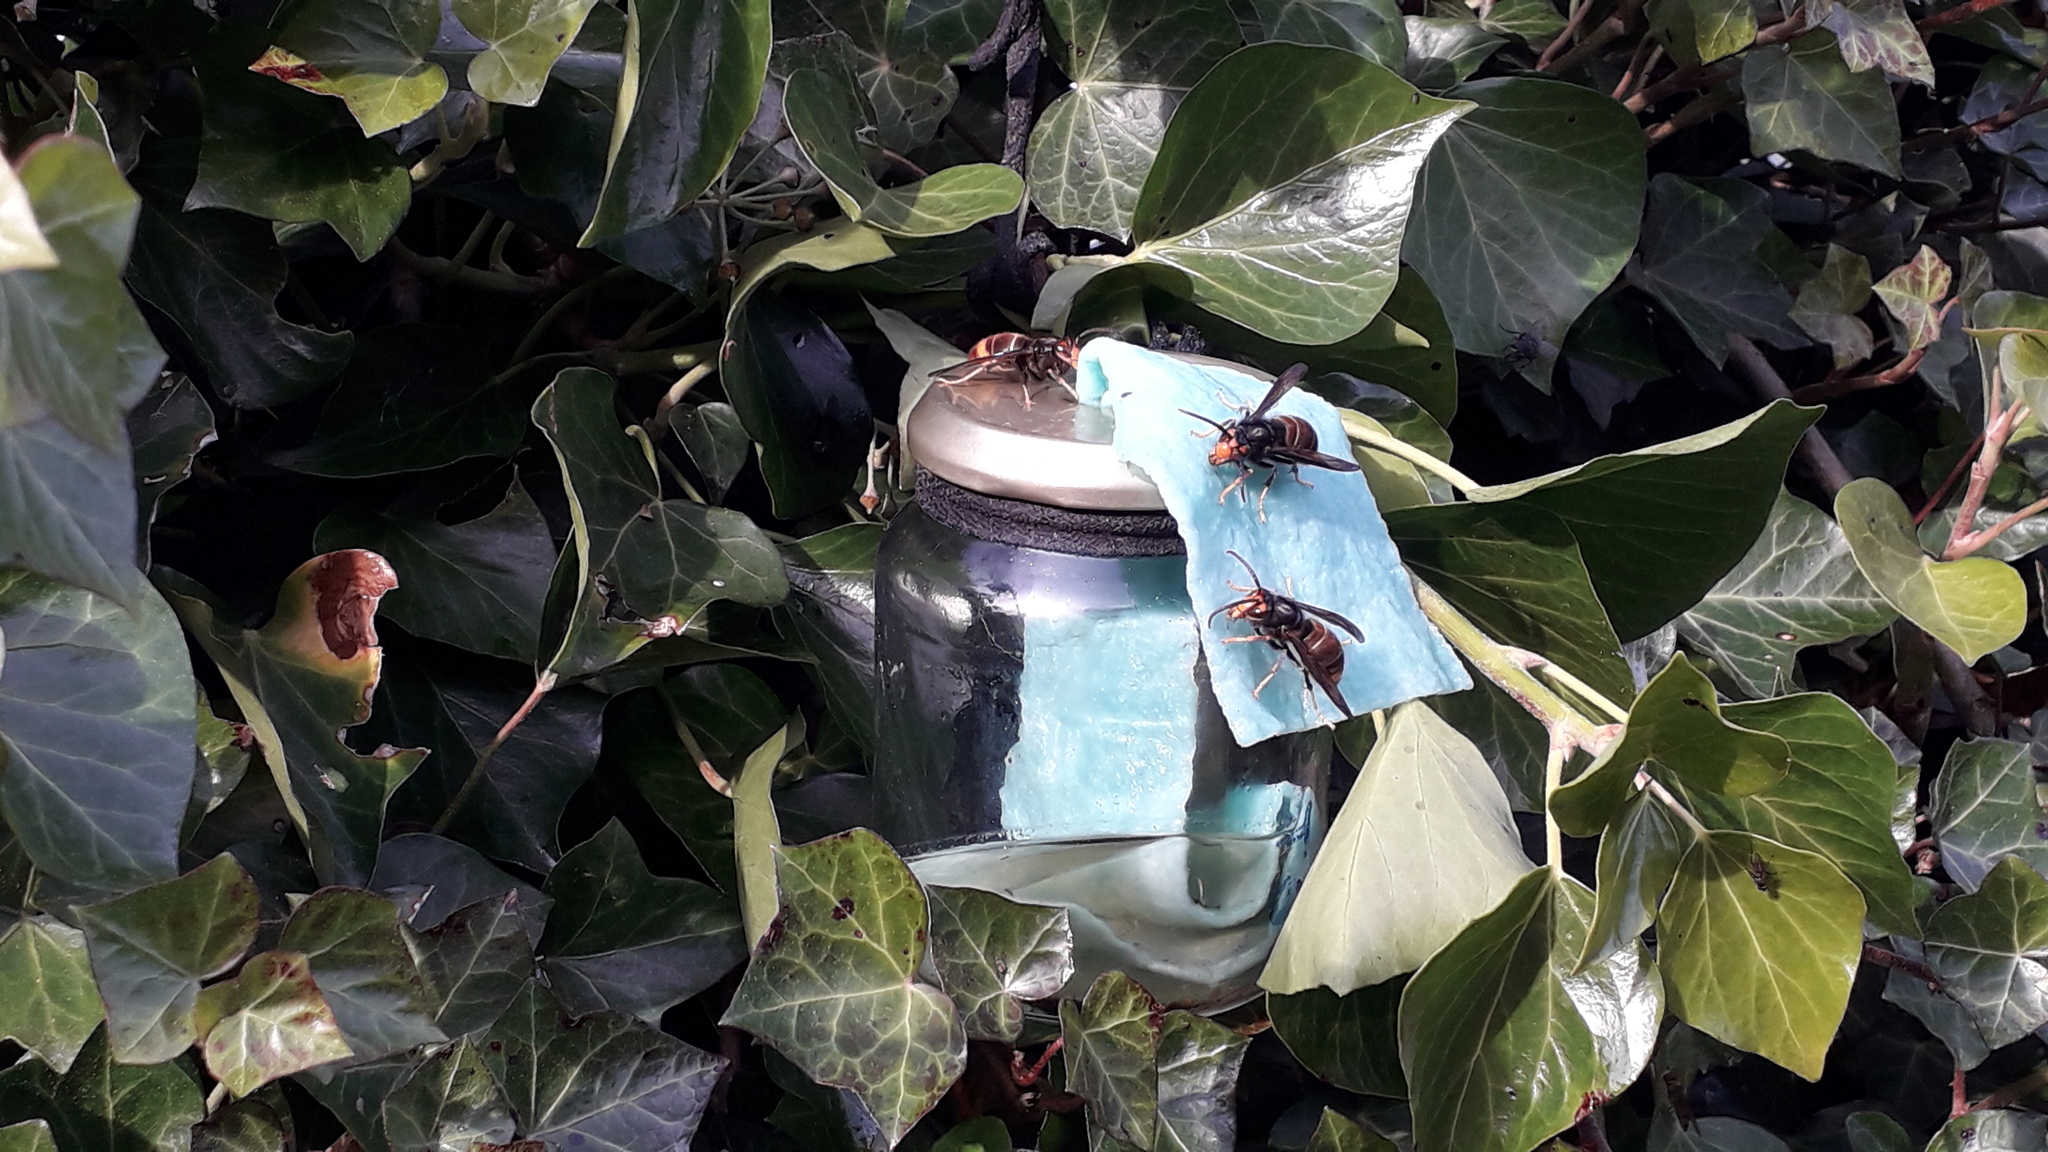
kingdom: Animalia
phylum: Arthropoda
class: Insecta
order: Hymenoptera
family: Vespidae
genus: Vespa
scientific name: Vespa velutina
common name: Asian hornet
